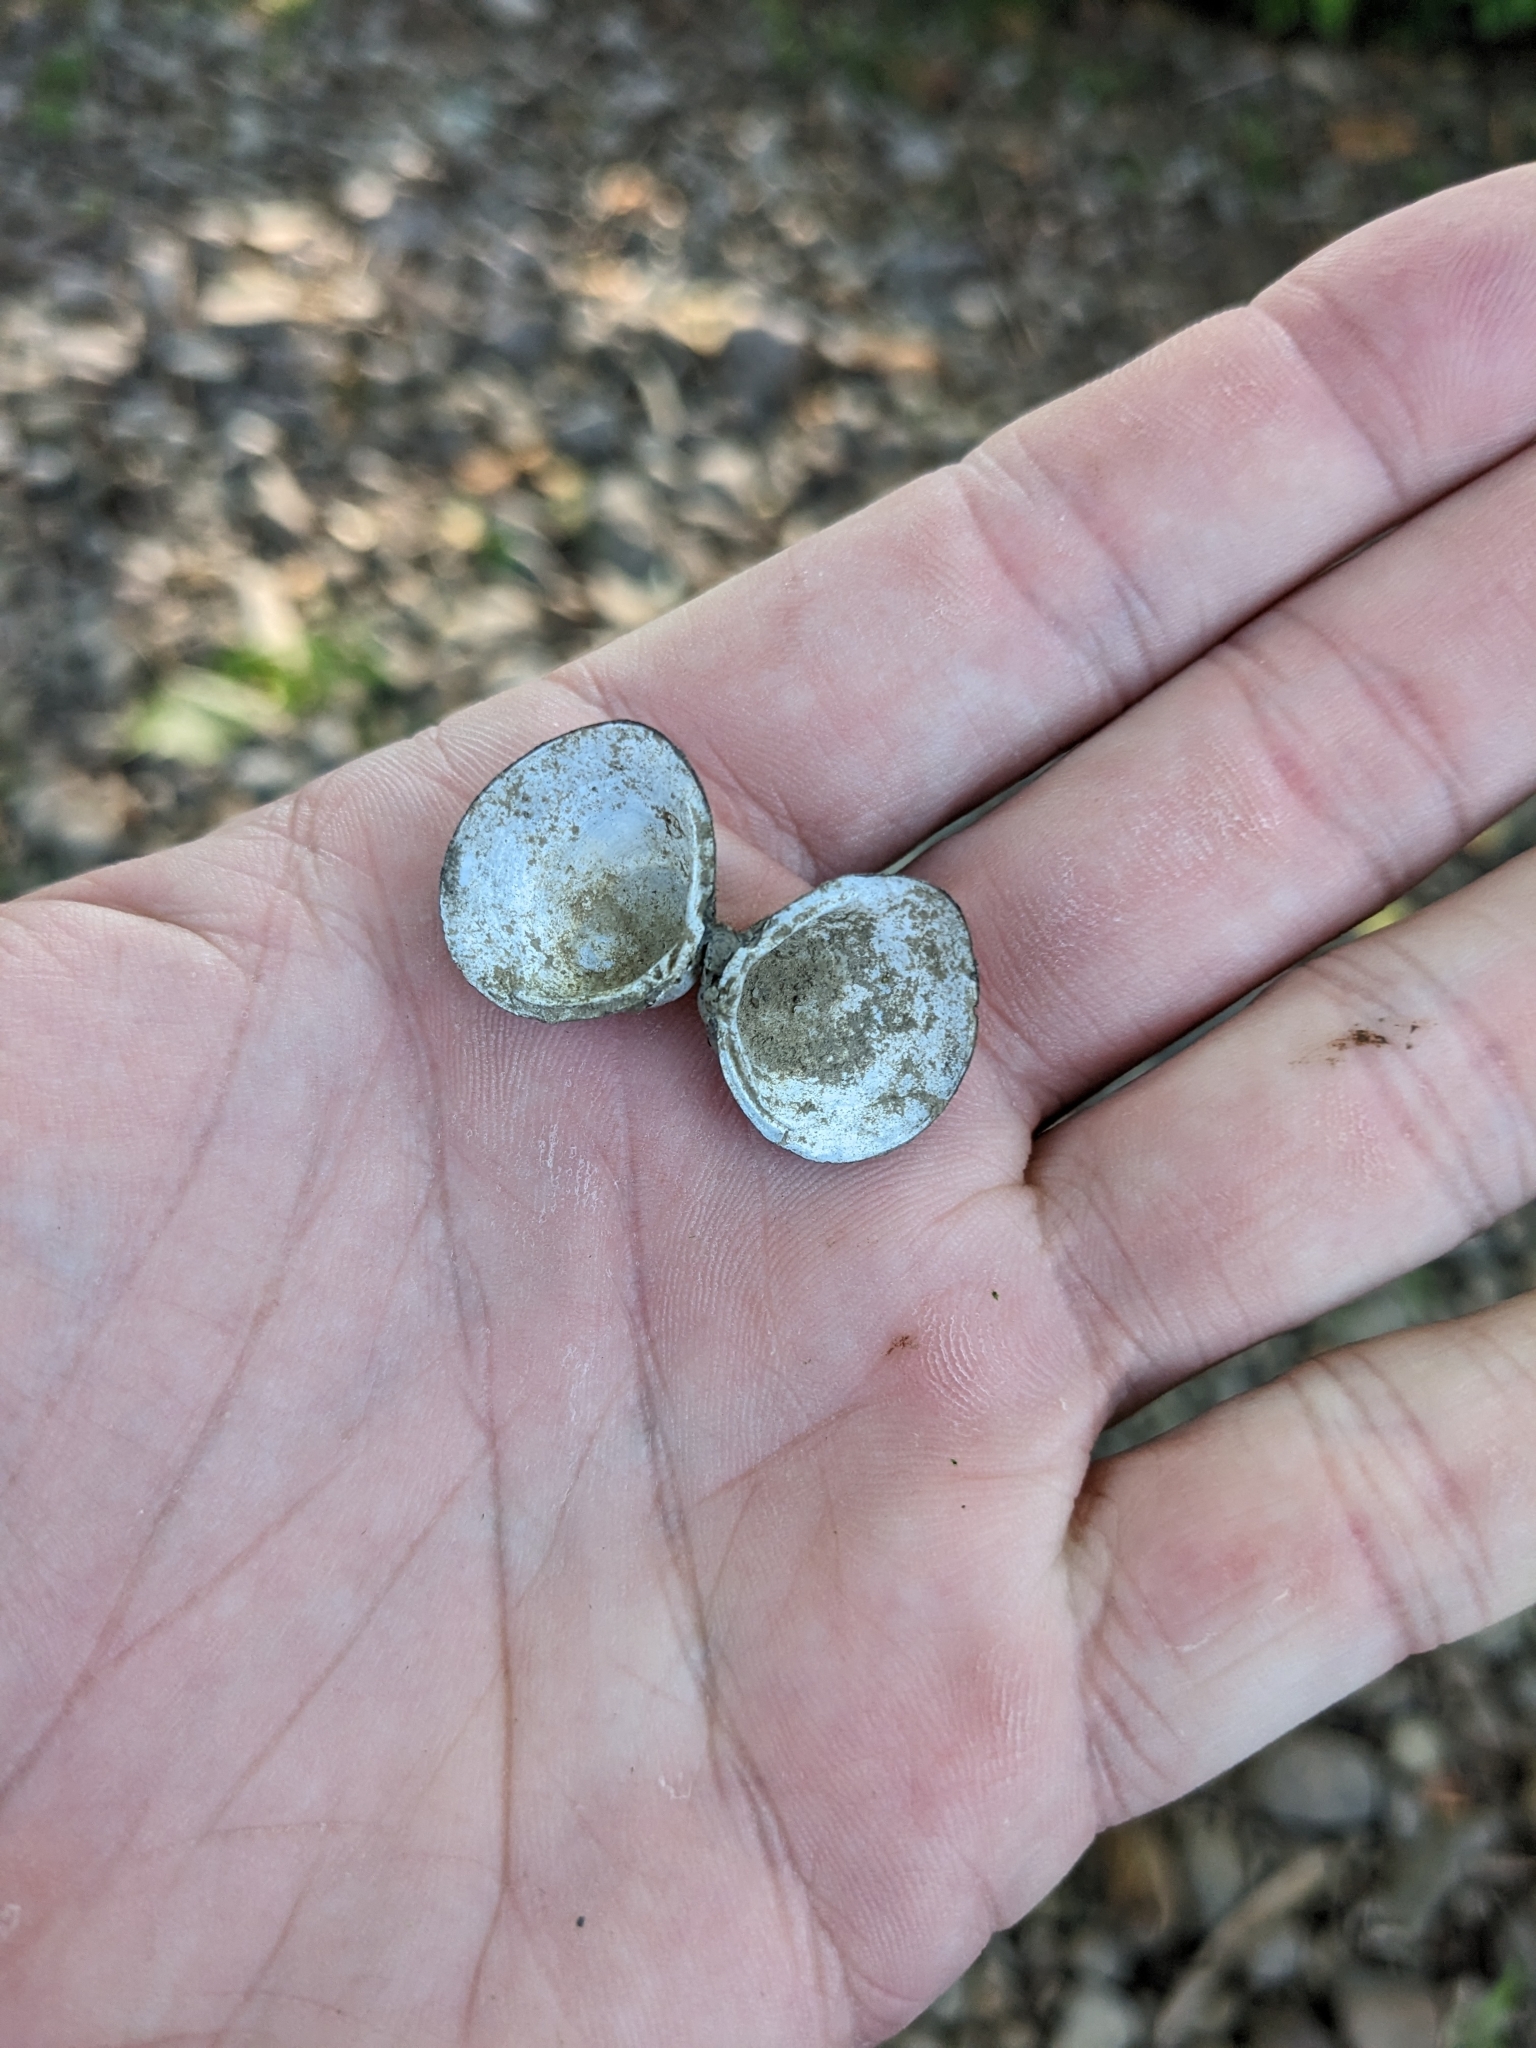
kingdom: Animalia
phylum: Mollusca
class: Bivalvia
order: Venerida
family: Cyrenidae
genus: Corbicula
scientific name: Corbicula fluminea
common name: Asian clam
